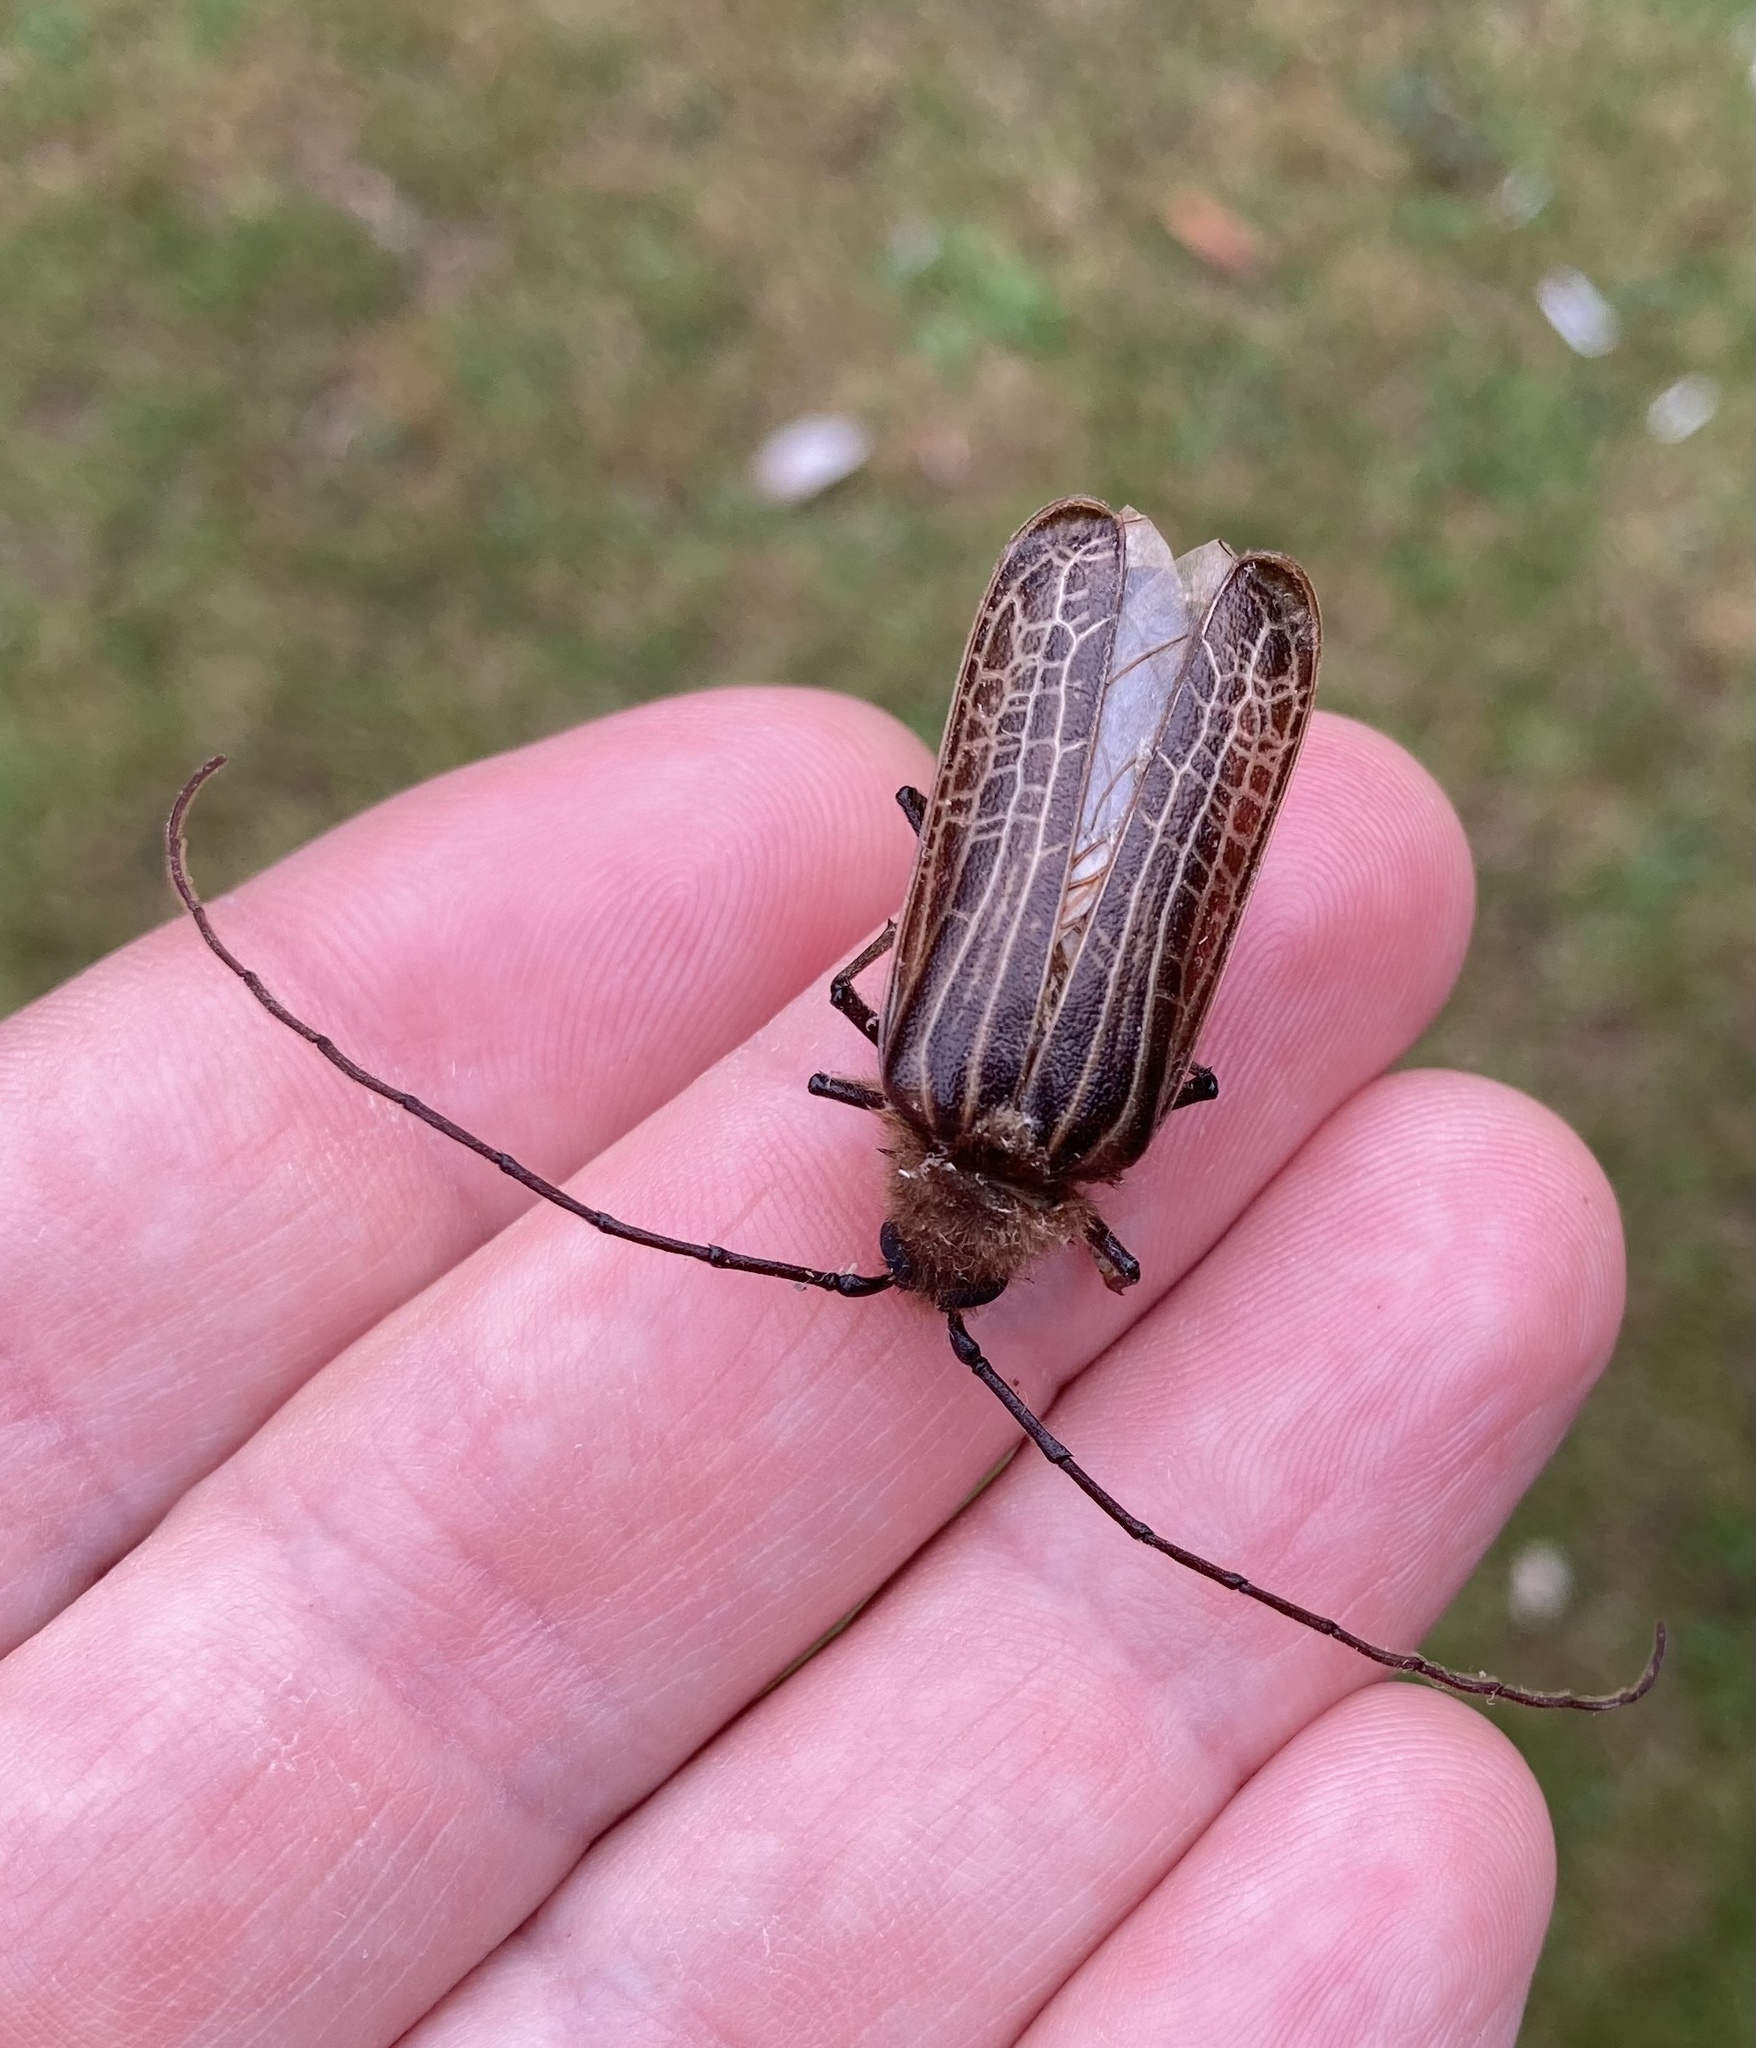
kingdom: Animalia
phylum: Arthropoda
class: Insecta
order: Coleoptera
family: Cerambycidae
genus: Prionoplus
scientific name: Prionoplus reticularis
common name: Huhu beetle
